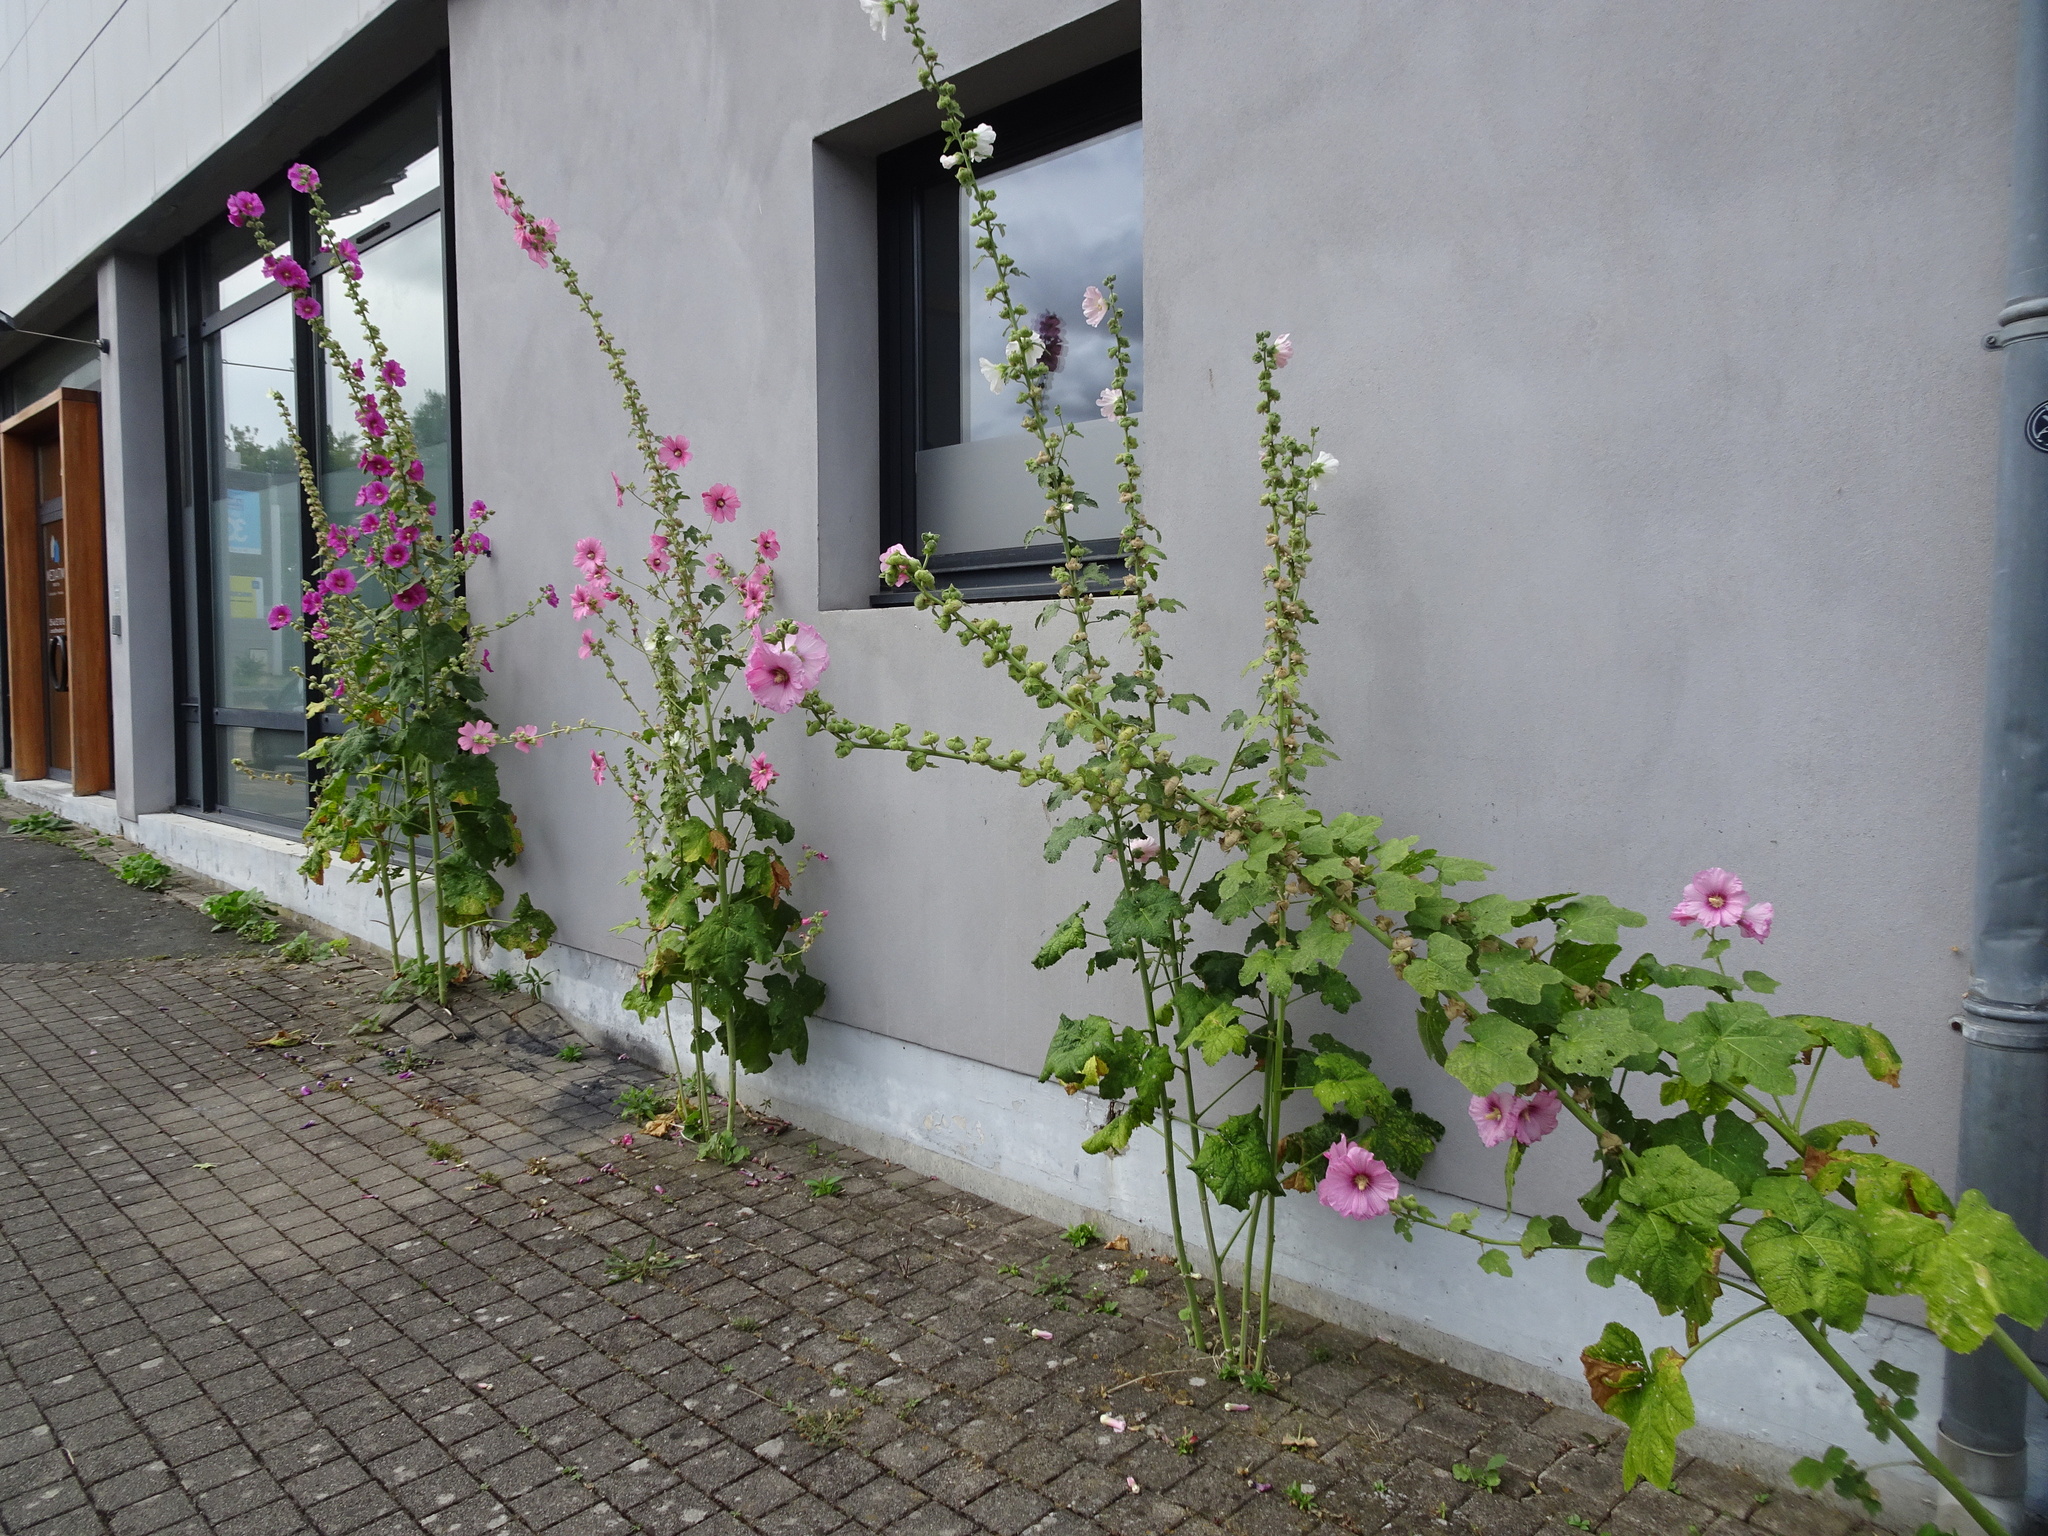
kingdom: Plantae
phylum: Tracheophyta
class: Magnoliopsida
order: Malvales
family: Malvaceae
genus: Alcea
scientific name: Alcea rosea
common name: Hollyhock
